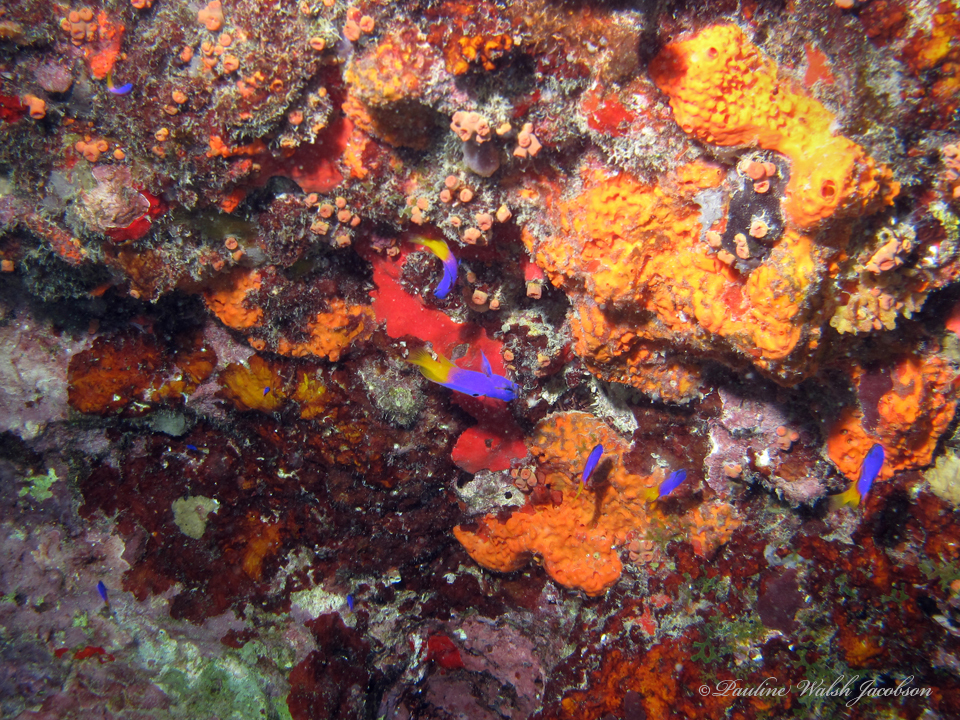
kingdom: Animalia
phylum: Chordata
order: Perciformes
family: Grammatidae
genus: Gramma
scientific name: Gramma loreto
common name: Fairy basslet
